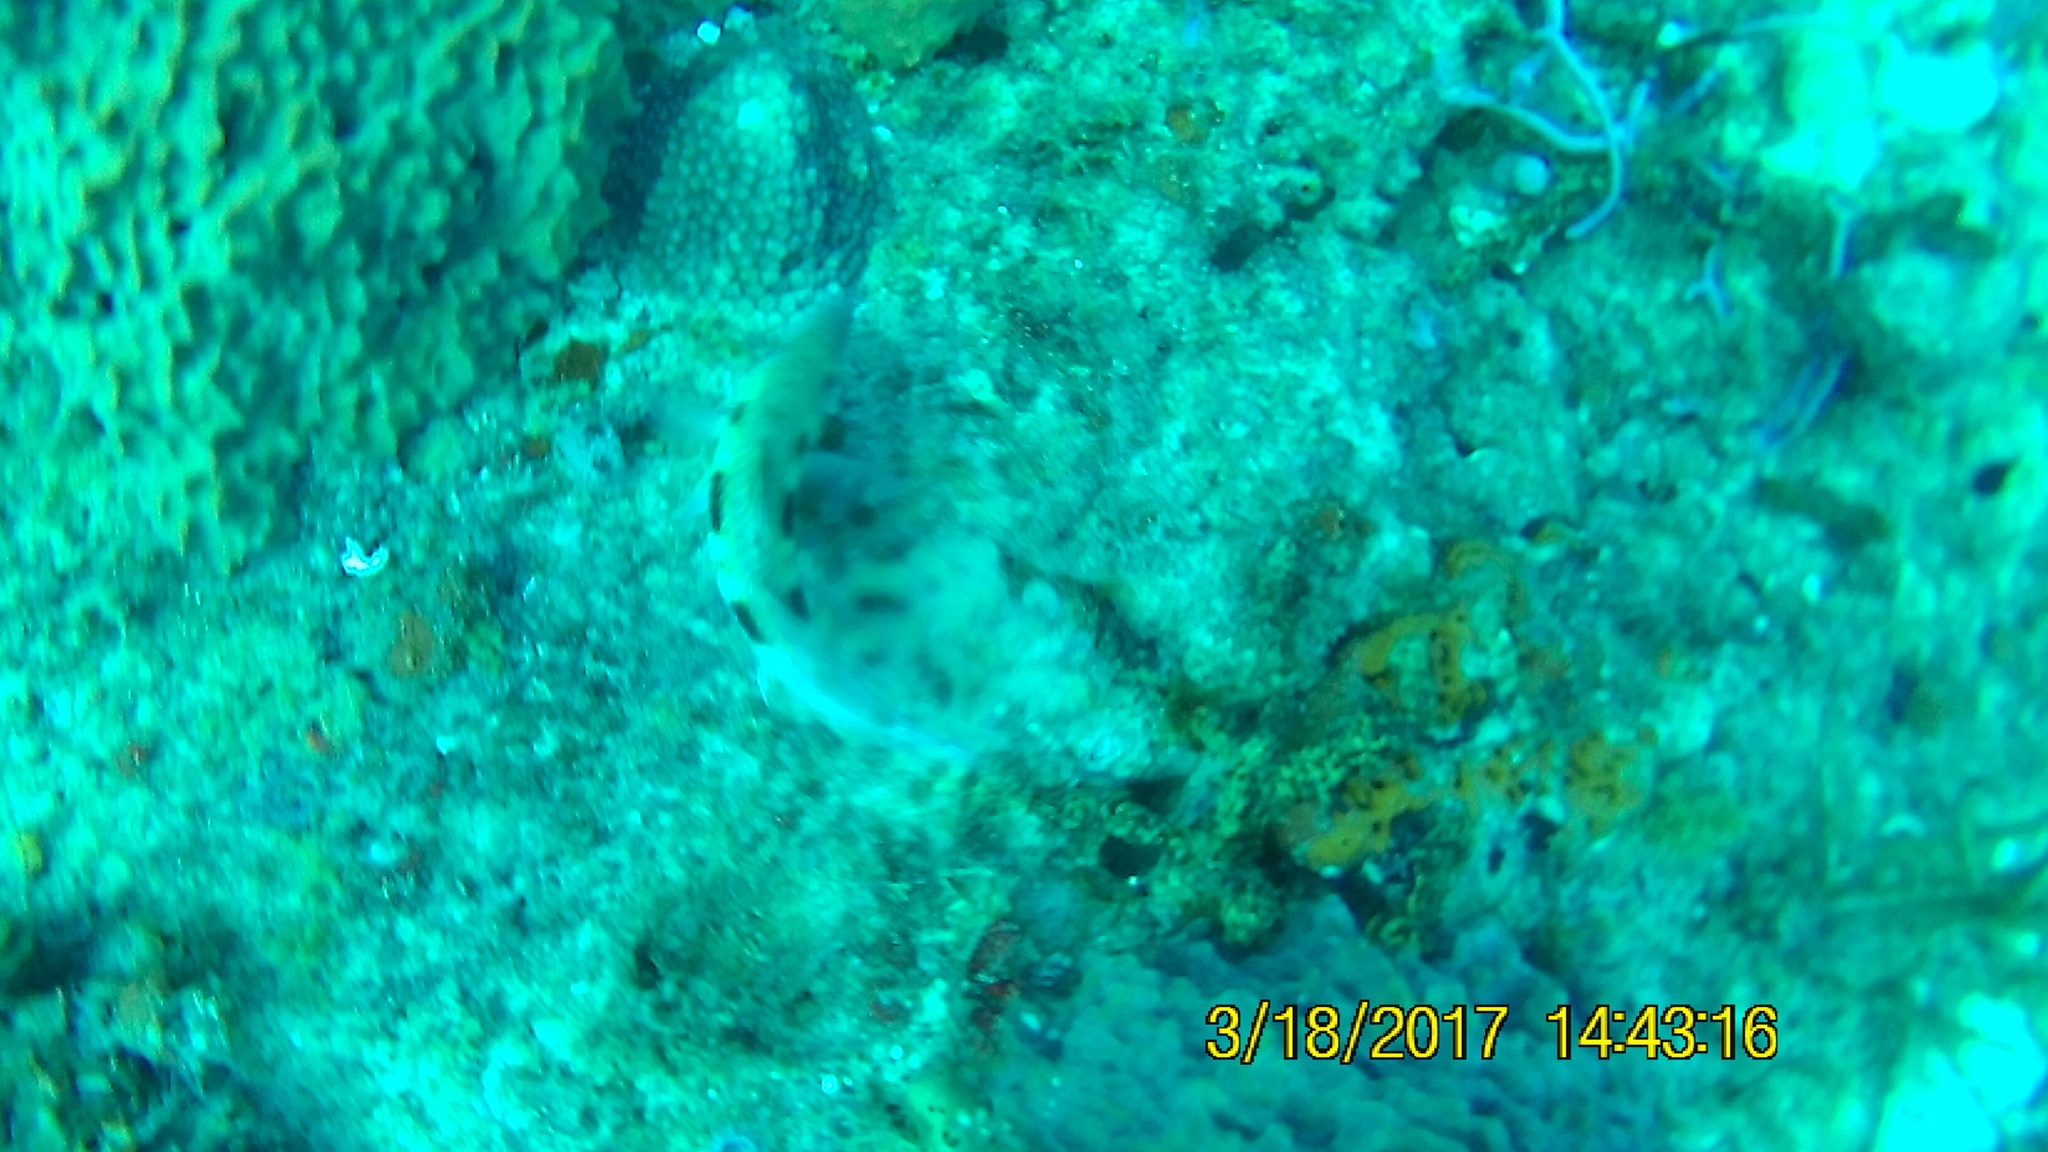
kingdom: Animalia
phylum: Chordata
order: Perciformes
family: Mullidae
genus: Pseudupeneus
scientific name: Pseudupeneus maculatus
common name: Spotted goatfish
